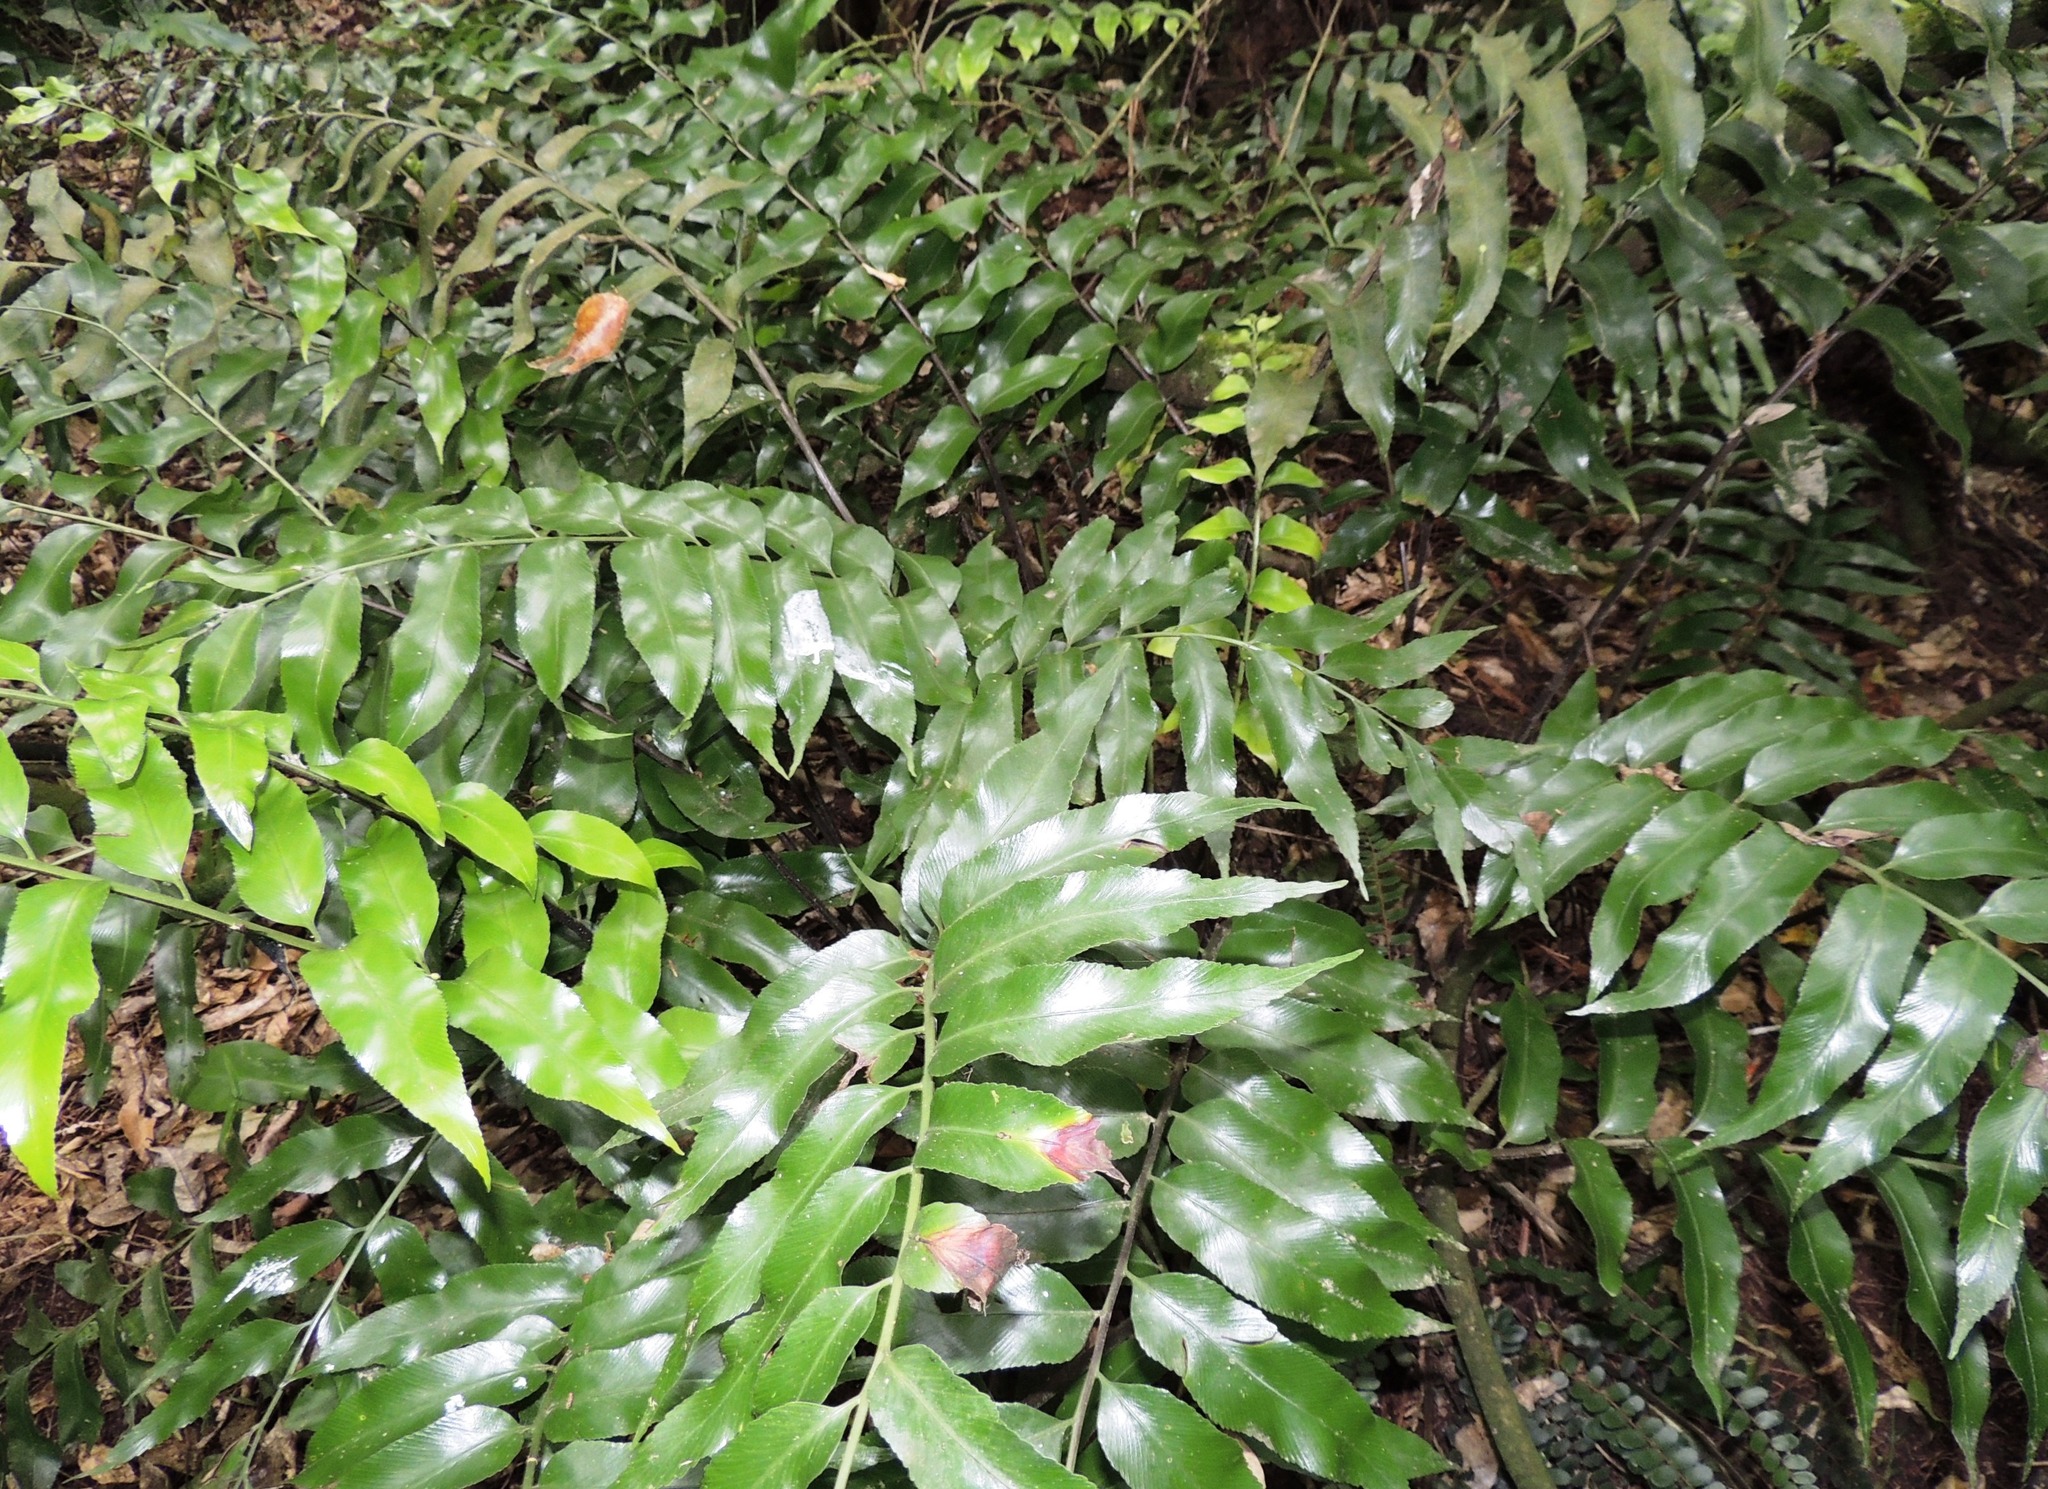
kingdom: Plantae
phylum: Tracheophyta
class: Polypodiopsida
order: Polypodiales
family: Aspleniaceae
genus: Asplenium
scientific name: Asplenium oblongifolium
